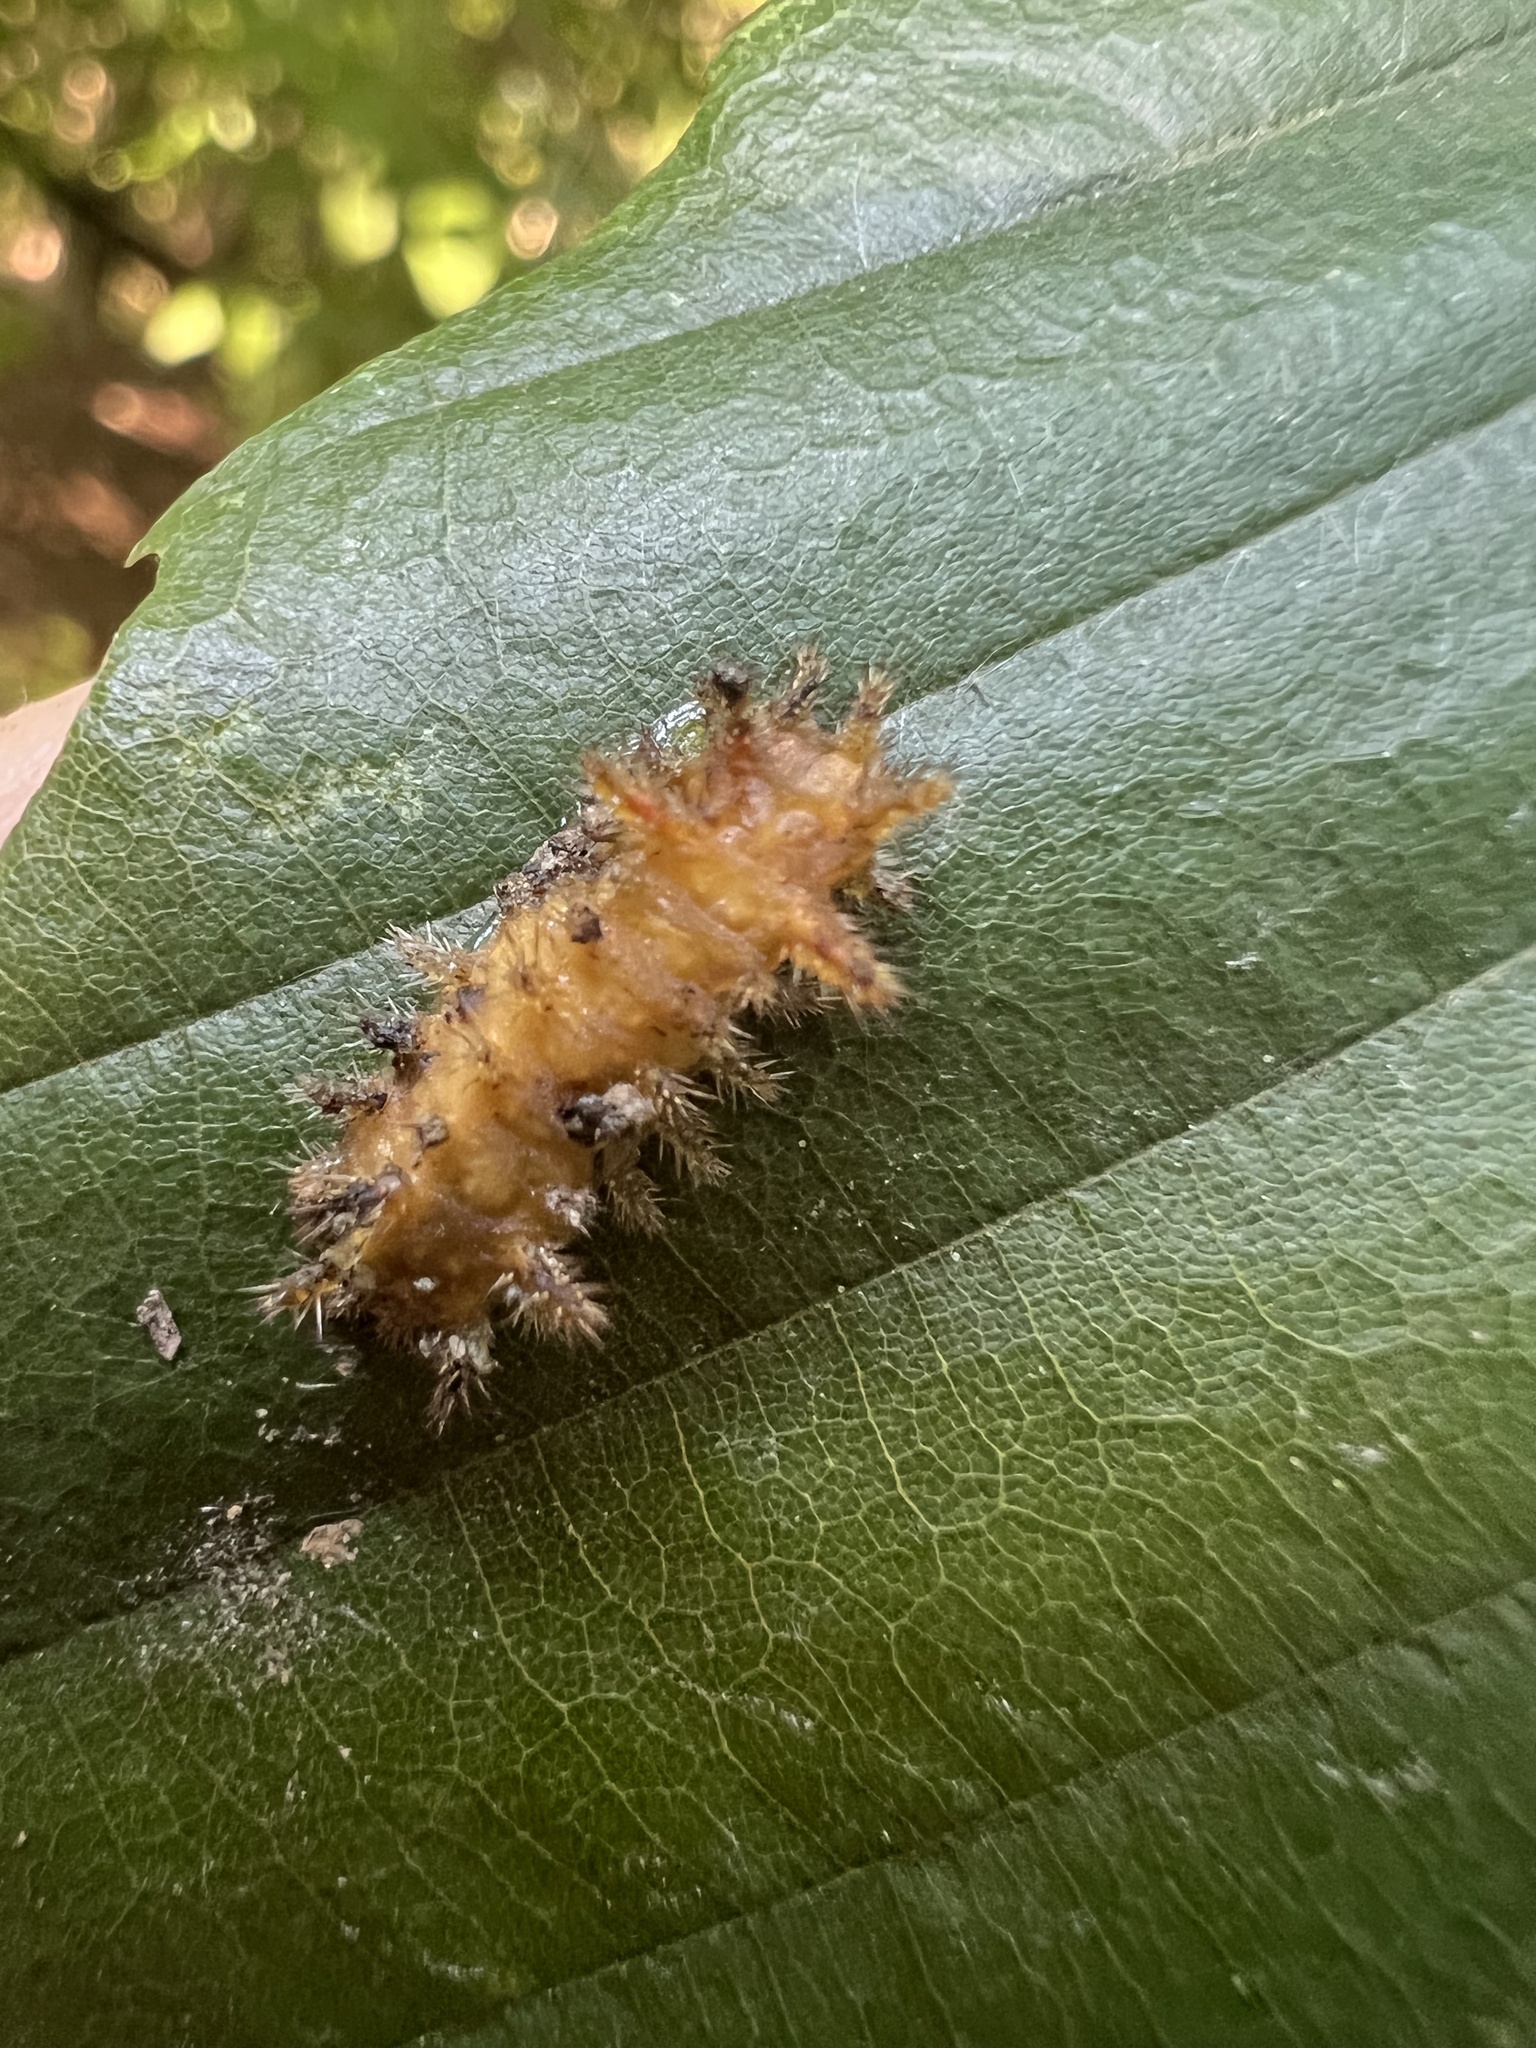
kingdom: Animalia
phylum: Arthropoda
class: Insecta
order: Lepidoptera
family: Limacodidae
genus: Euclea
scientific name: Euclea delphinii
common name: Spiny oak-slug moth
